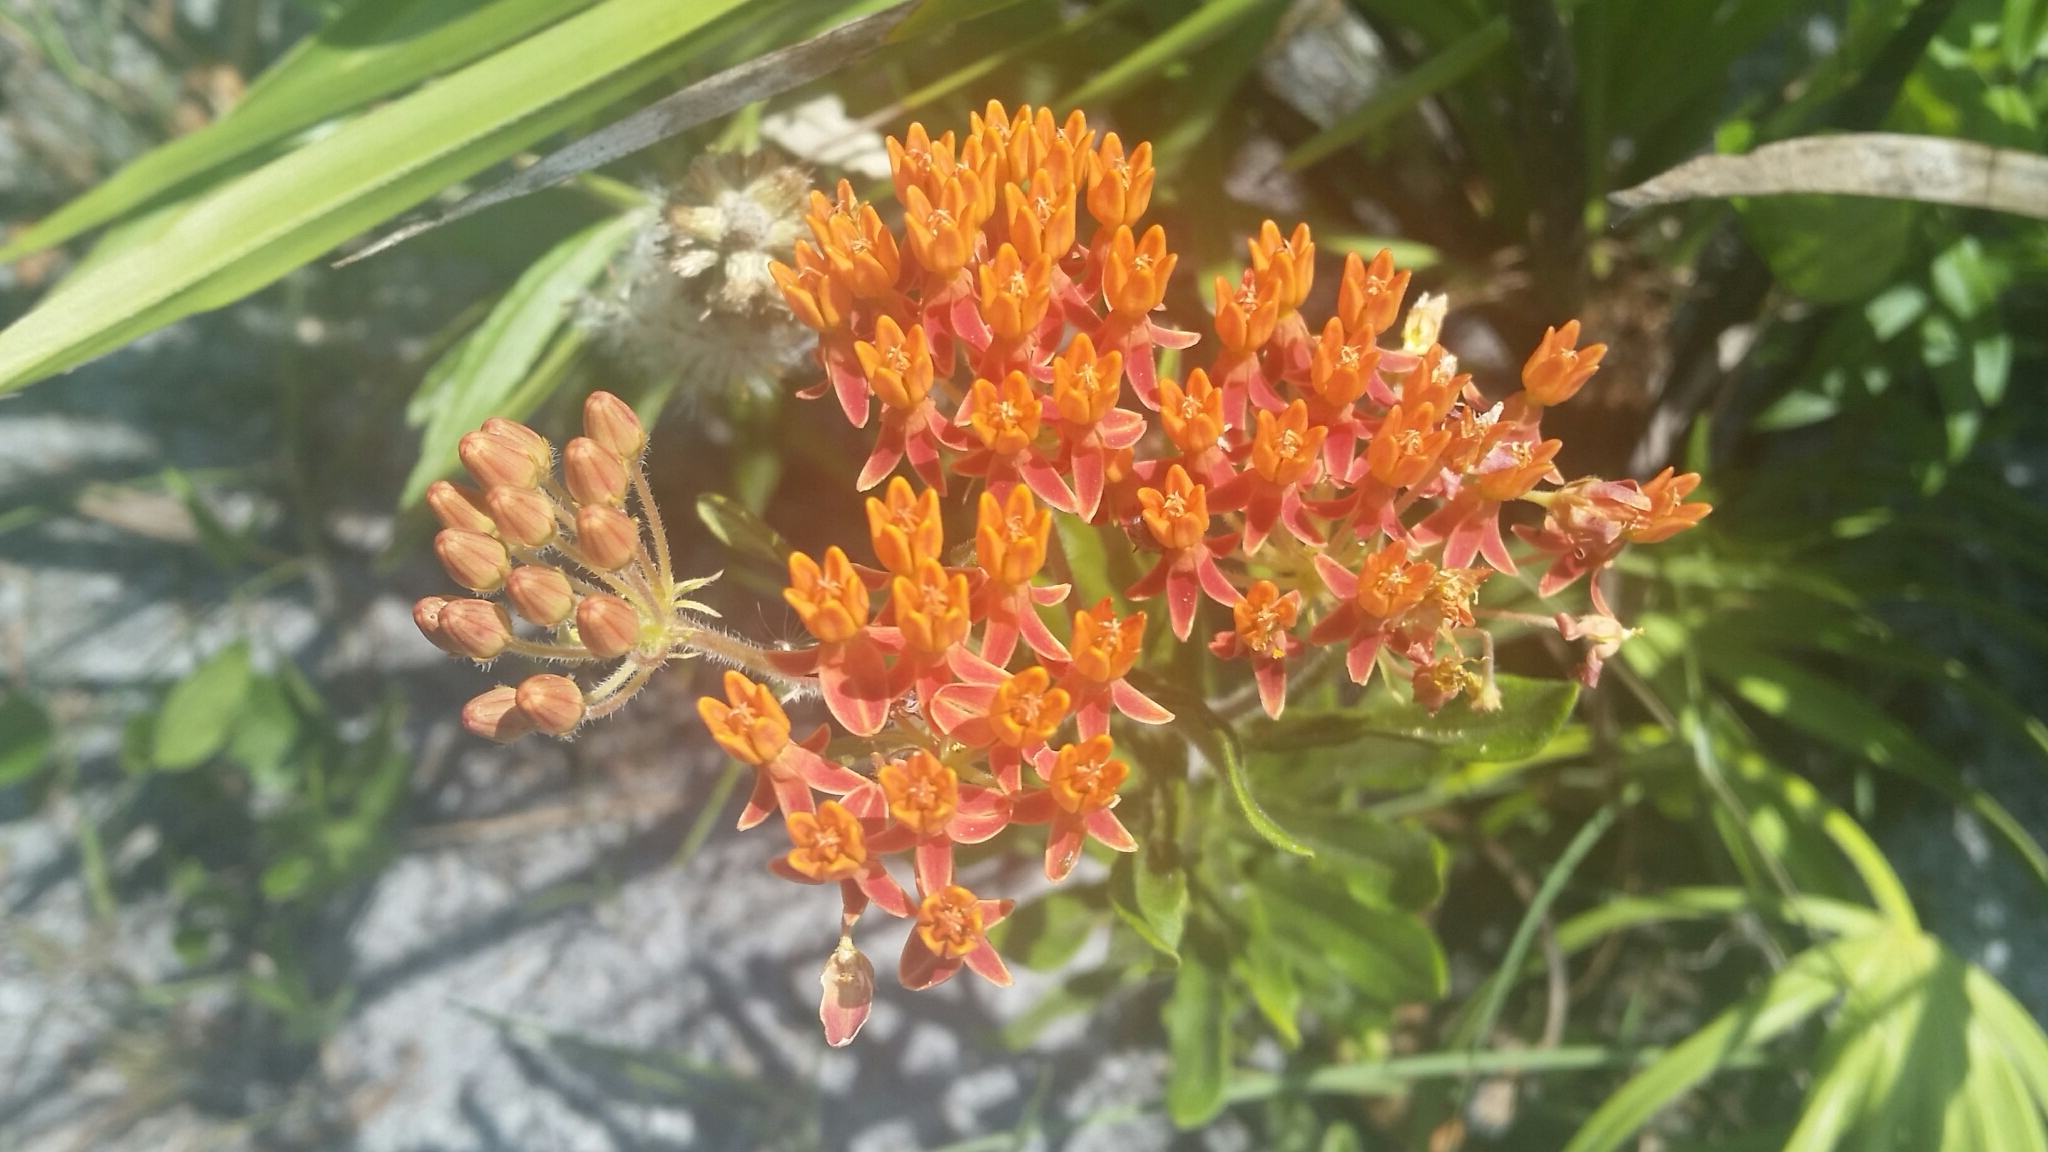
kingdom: Plantae
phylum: Tracheophyta
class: Magnoliopsida
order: Gentianales
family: Apocynaceae
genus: Asclepias
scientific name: Asclepias tuberosa
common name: Butterfly milkweed
